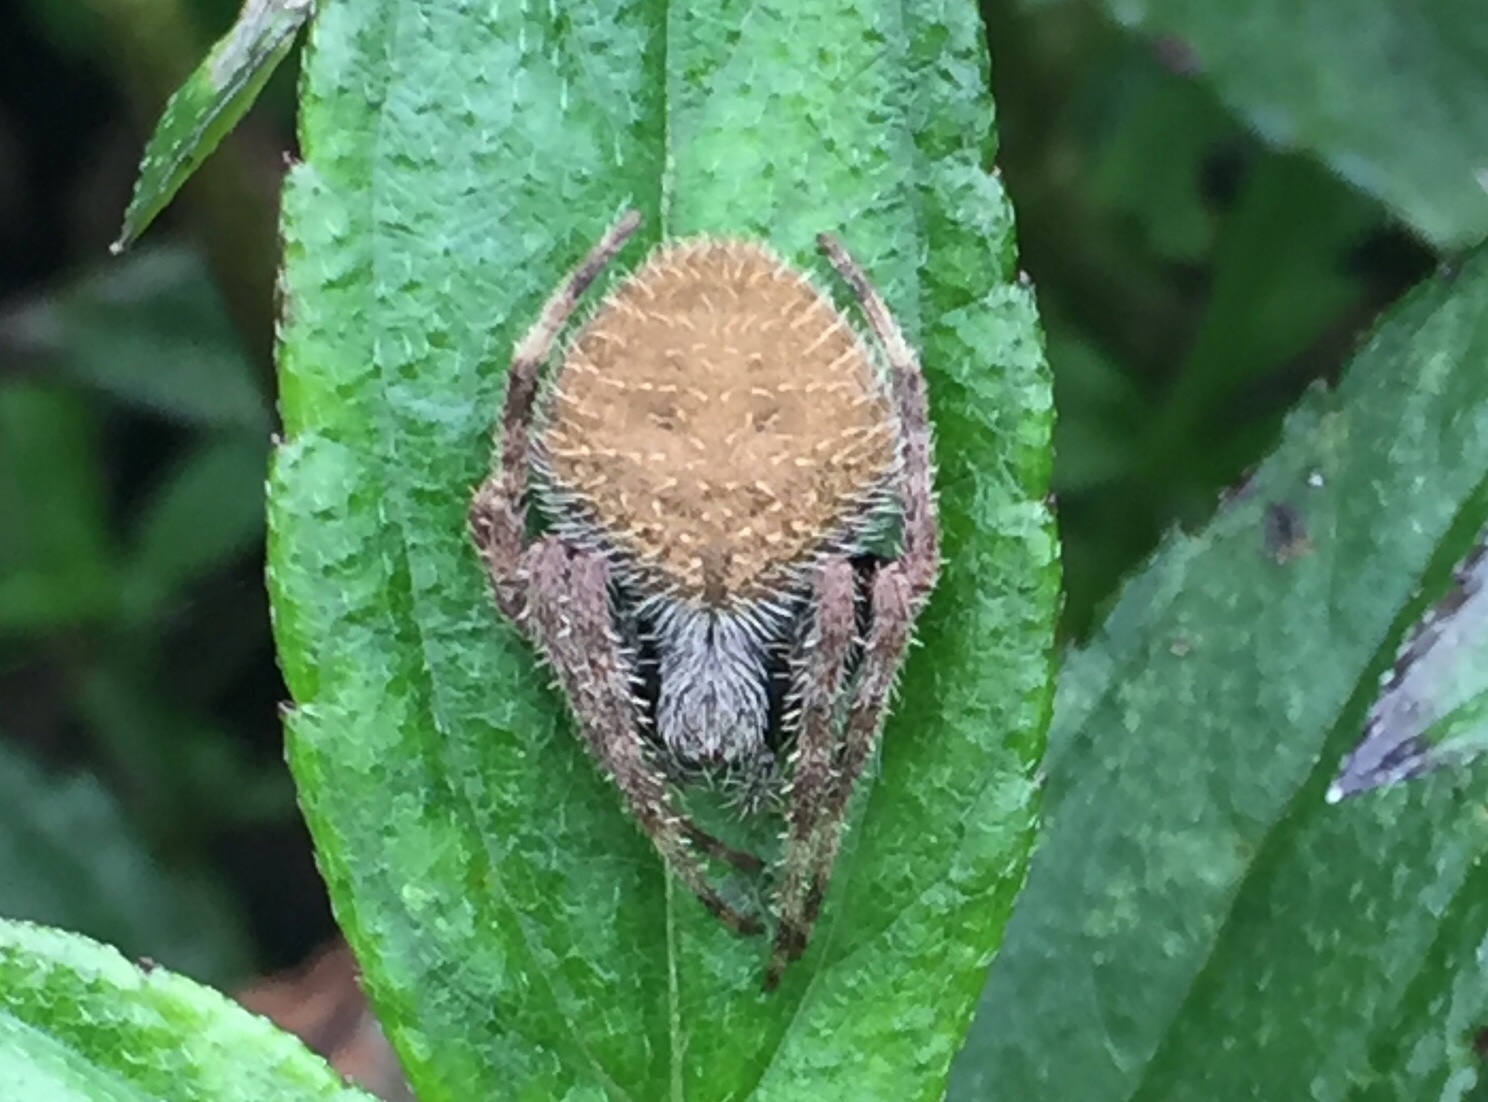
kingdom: Animalia
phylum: Arthropoda
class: Arachnida
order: Araneae
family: Araneidae
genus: Eriophora
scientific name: Eriophora ravilla
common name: Orb weavers
